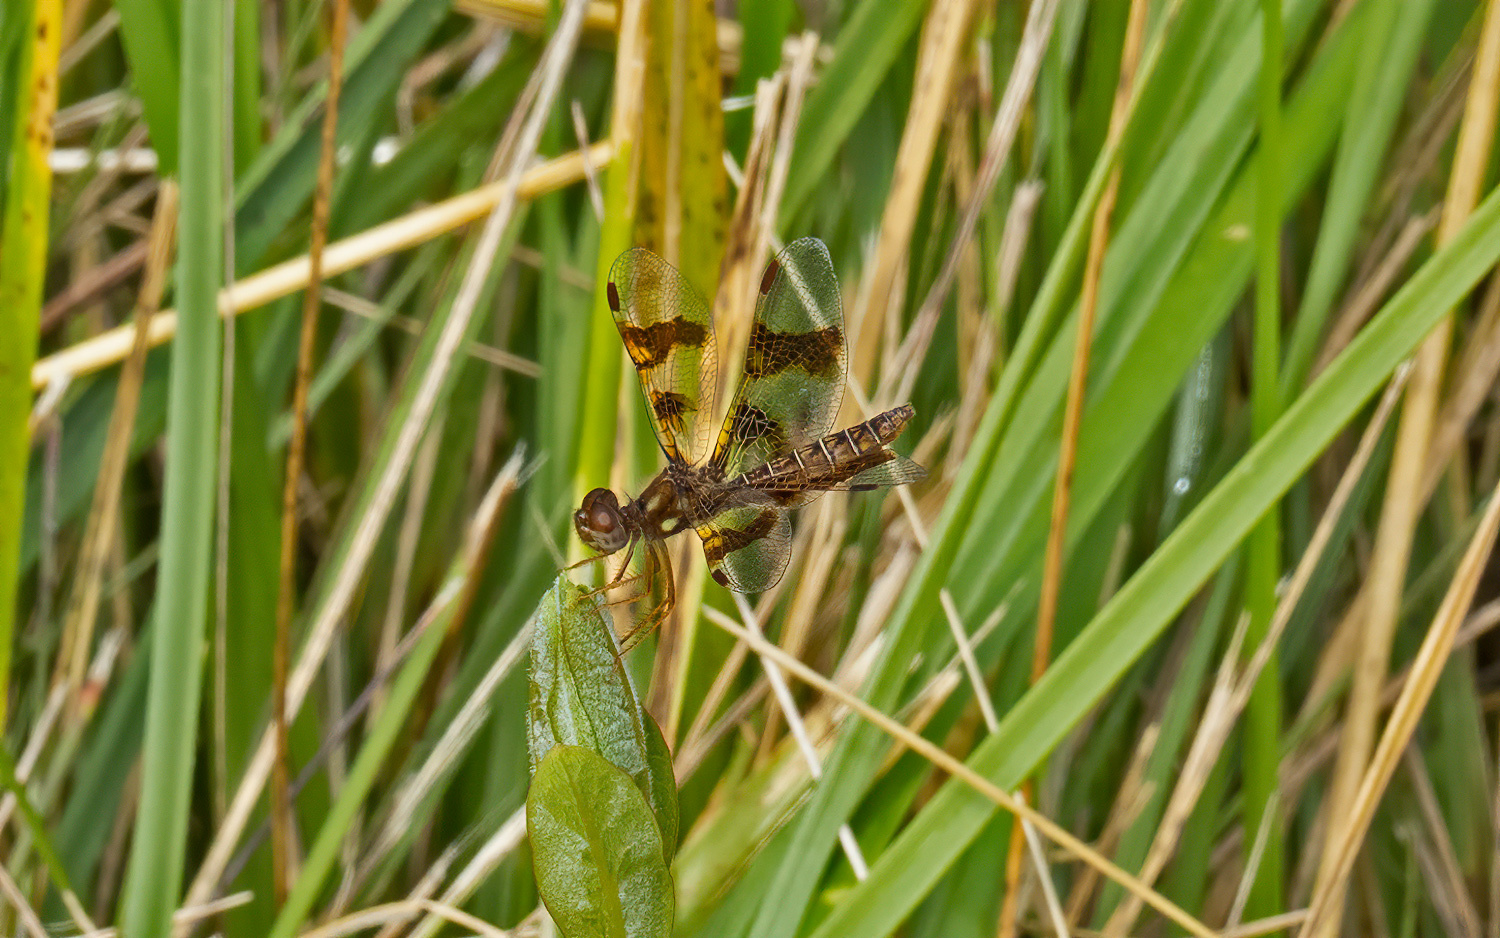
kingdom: Animalia
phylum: Arthropoda
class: Insecta
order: Odonata
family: Libellulidae
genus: Perithemis
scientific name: Perithemis tenera
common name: Eastern amberwing
